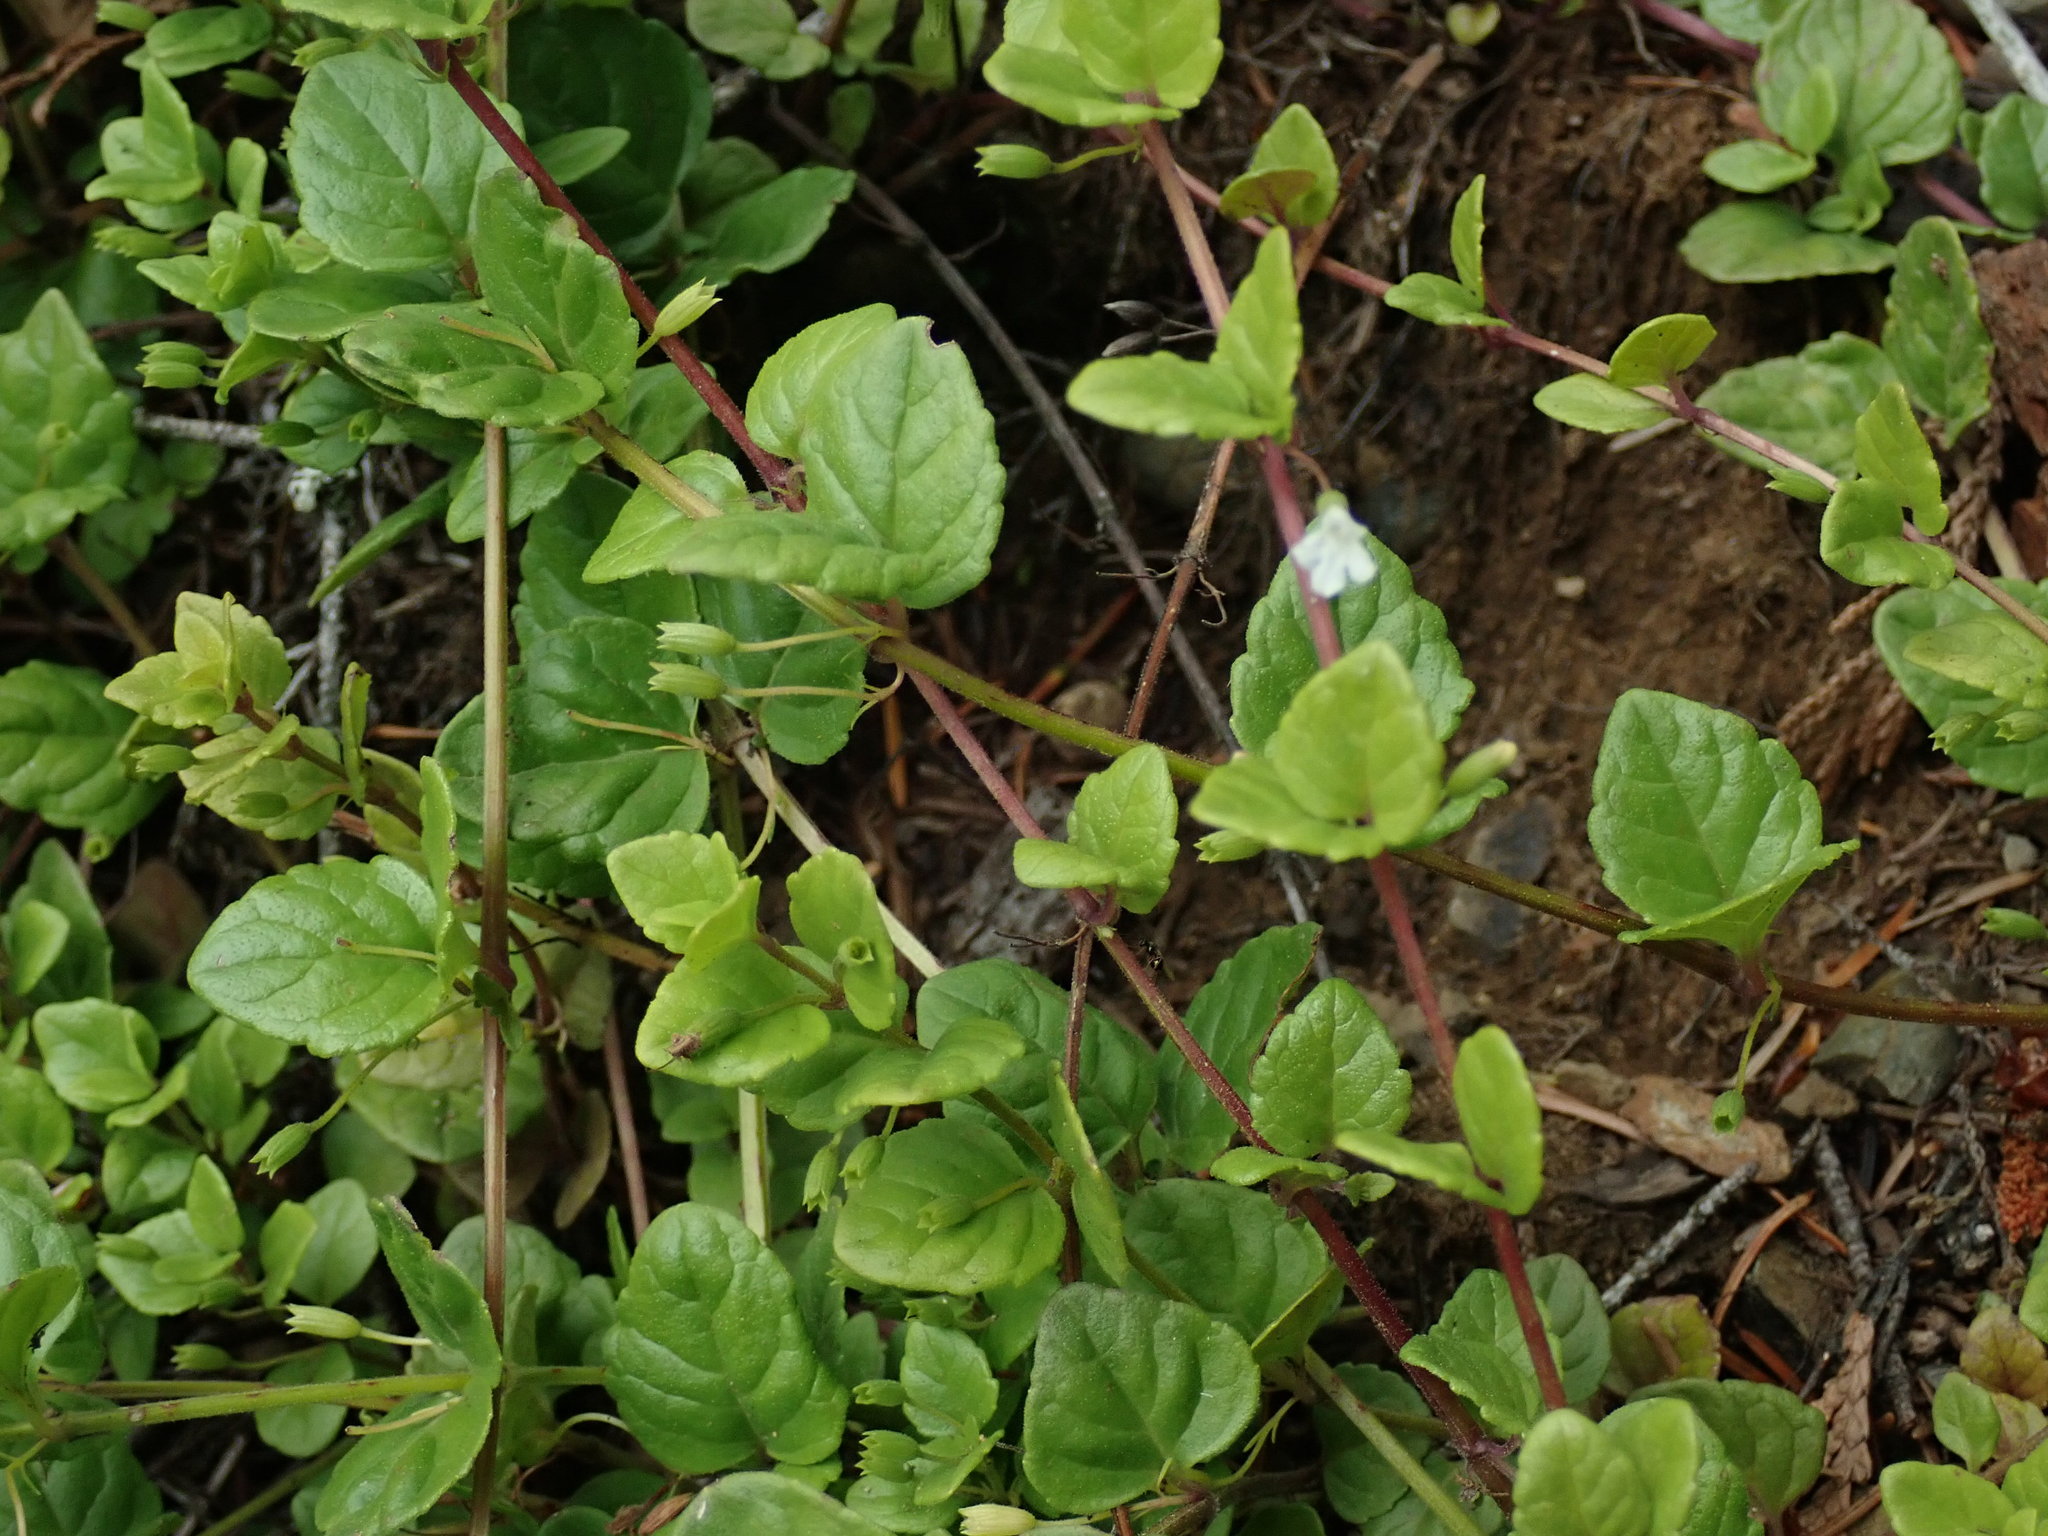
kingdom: Plantae
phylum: Tracheophyta
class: Magnoliopsida
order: Lamiales
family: Lamiaceae
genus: Micromeria
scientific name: Micromeria douglasii
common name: Yerba buena
